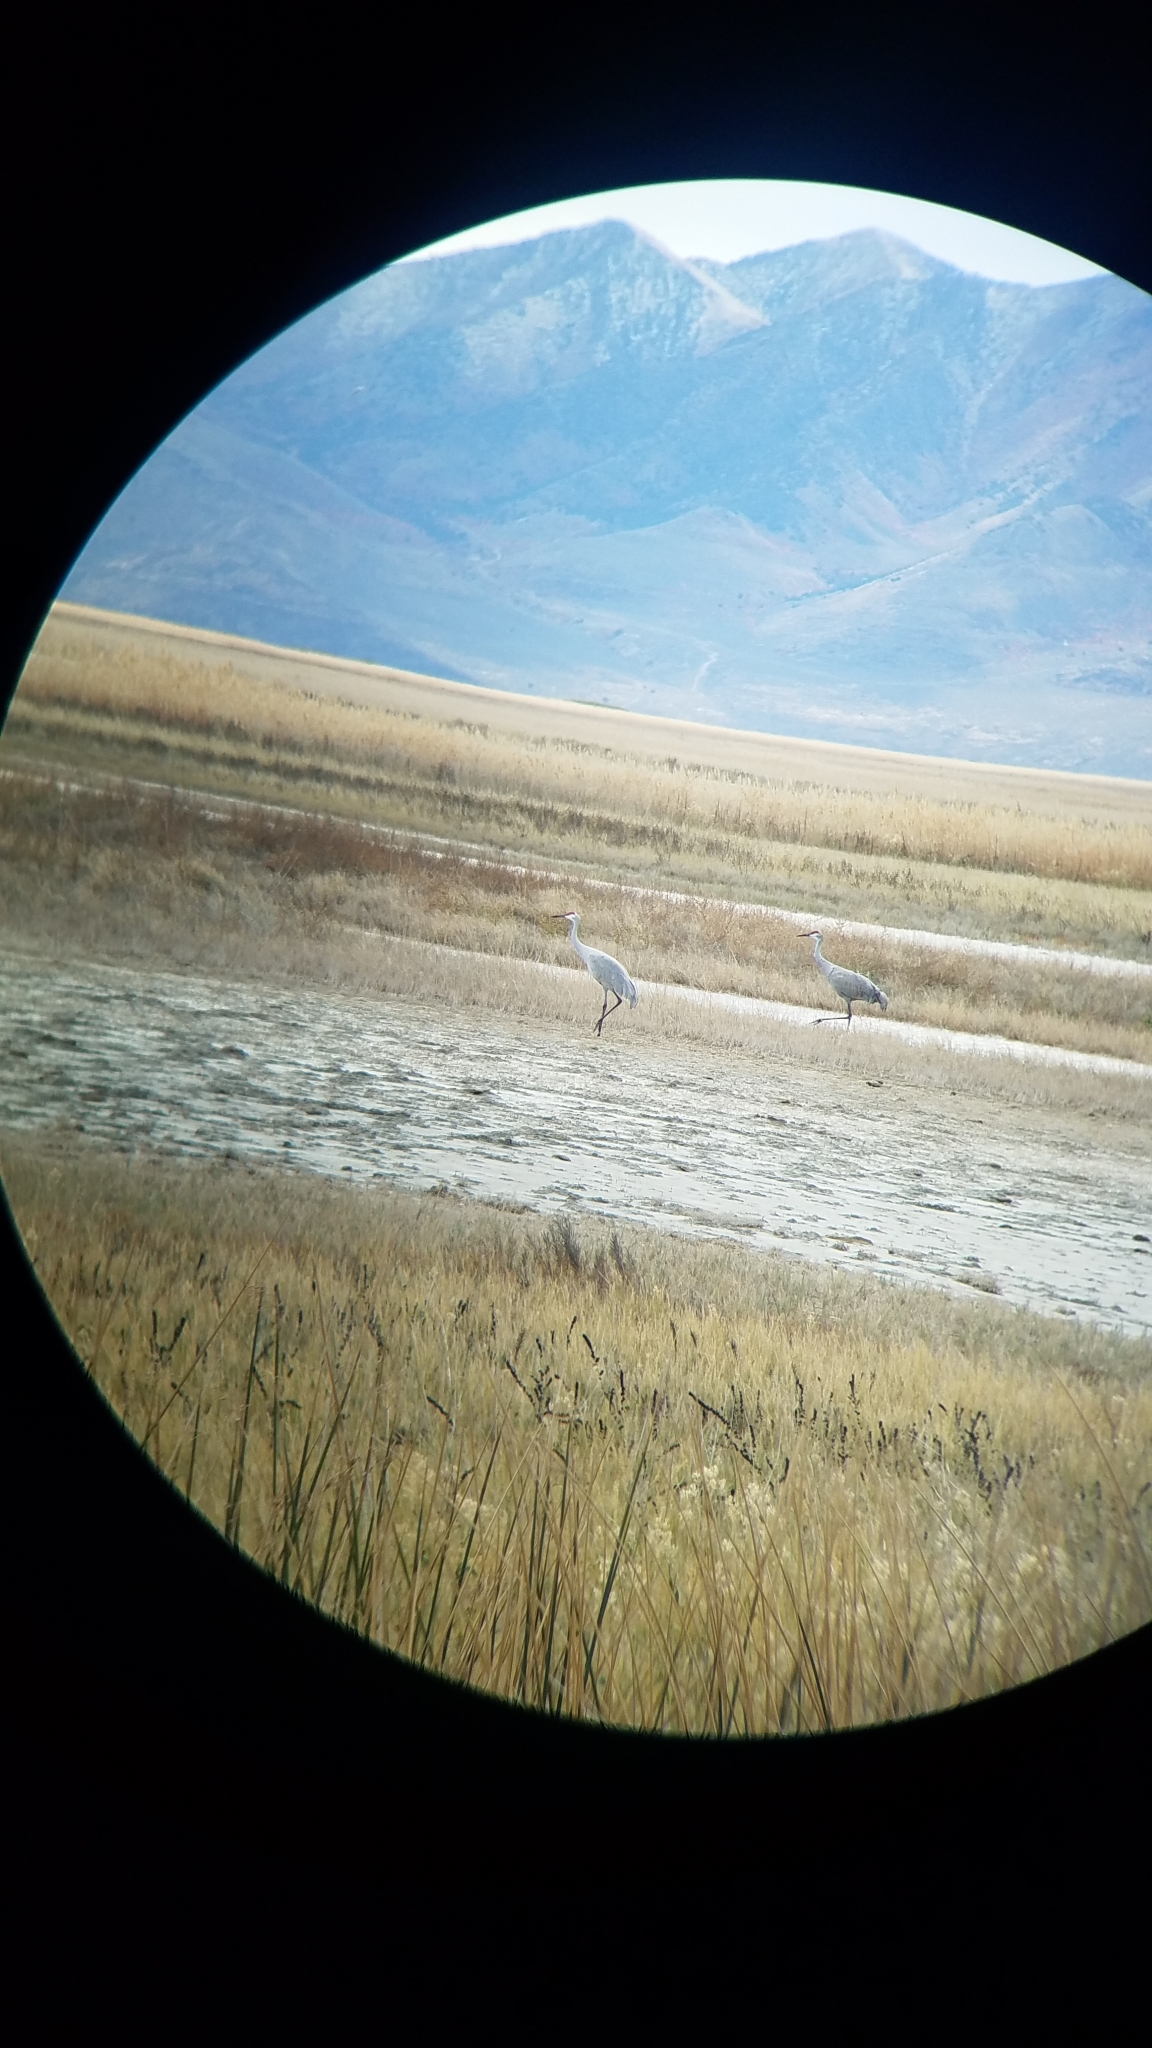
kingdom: Animalia
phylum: Chordata
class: Aves
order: Gruiformes
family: Gruidae
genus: Grus
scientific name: Grus canadensis
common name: Sandhill crane
